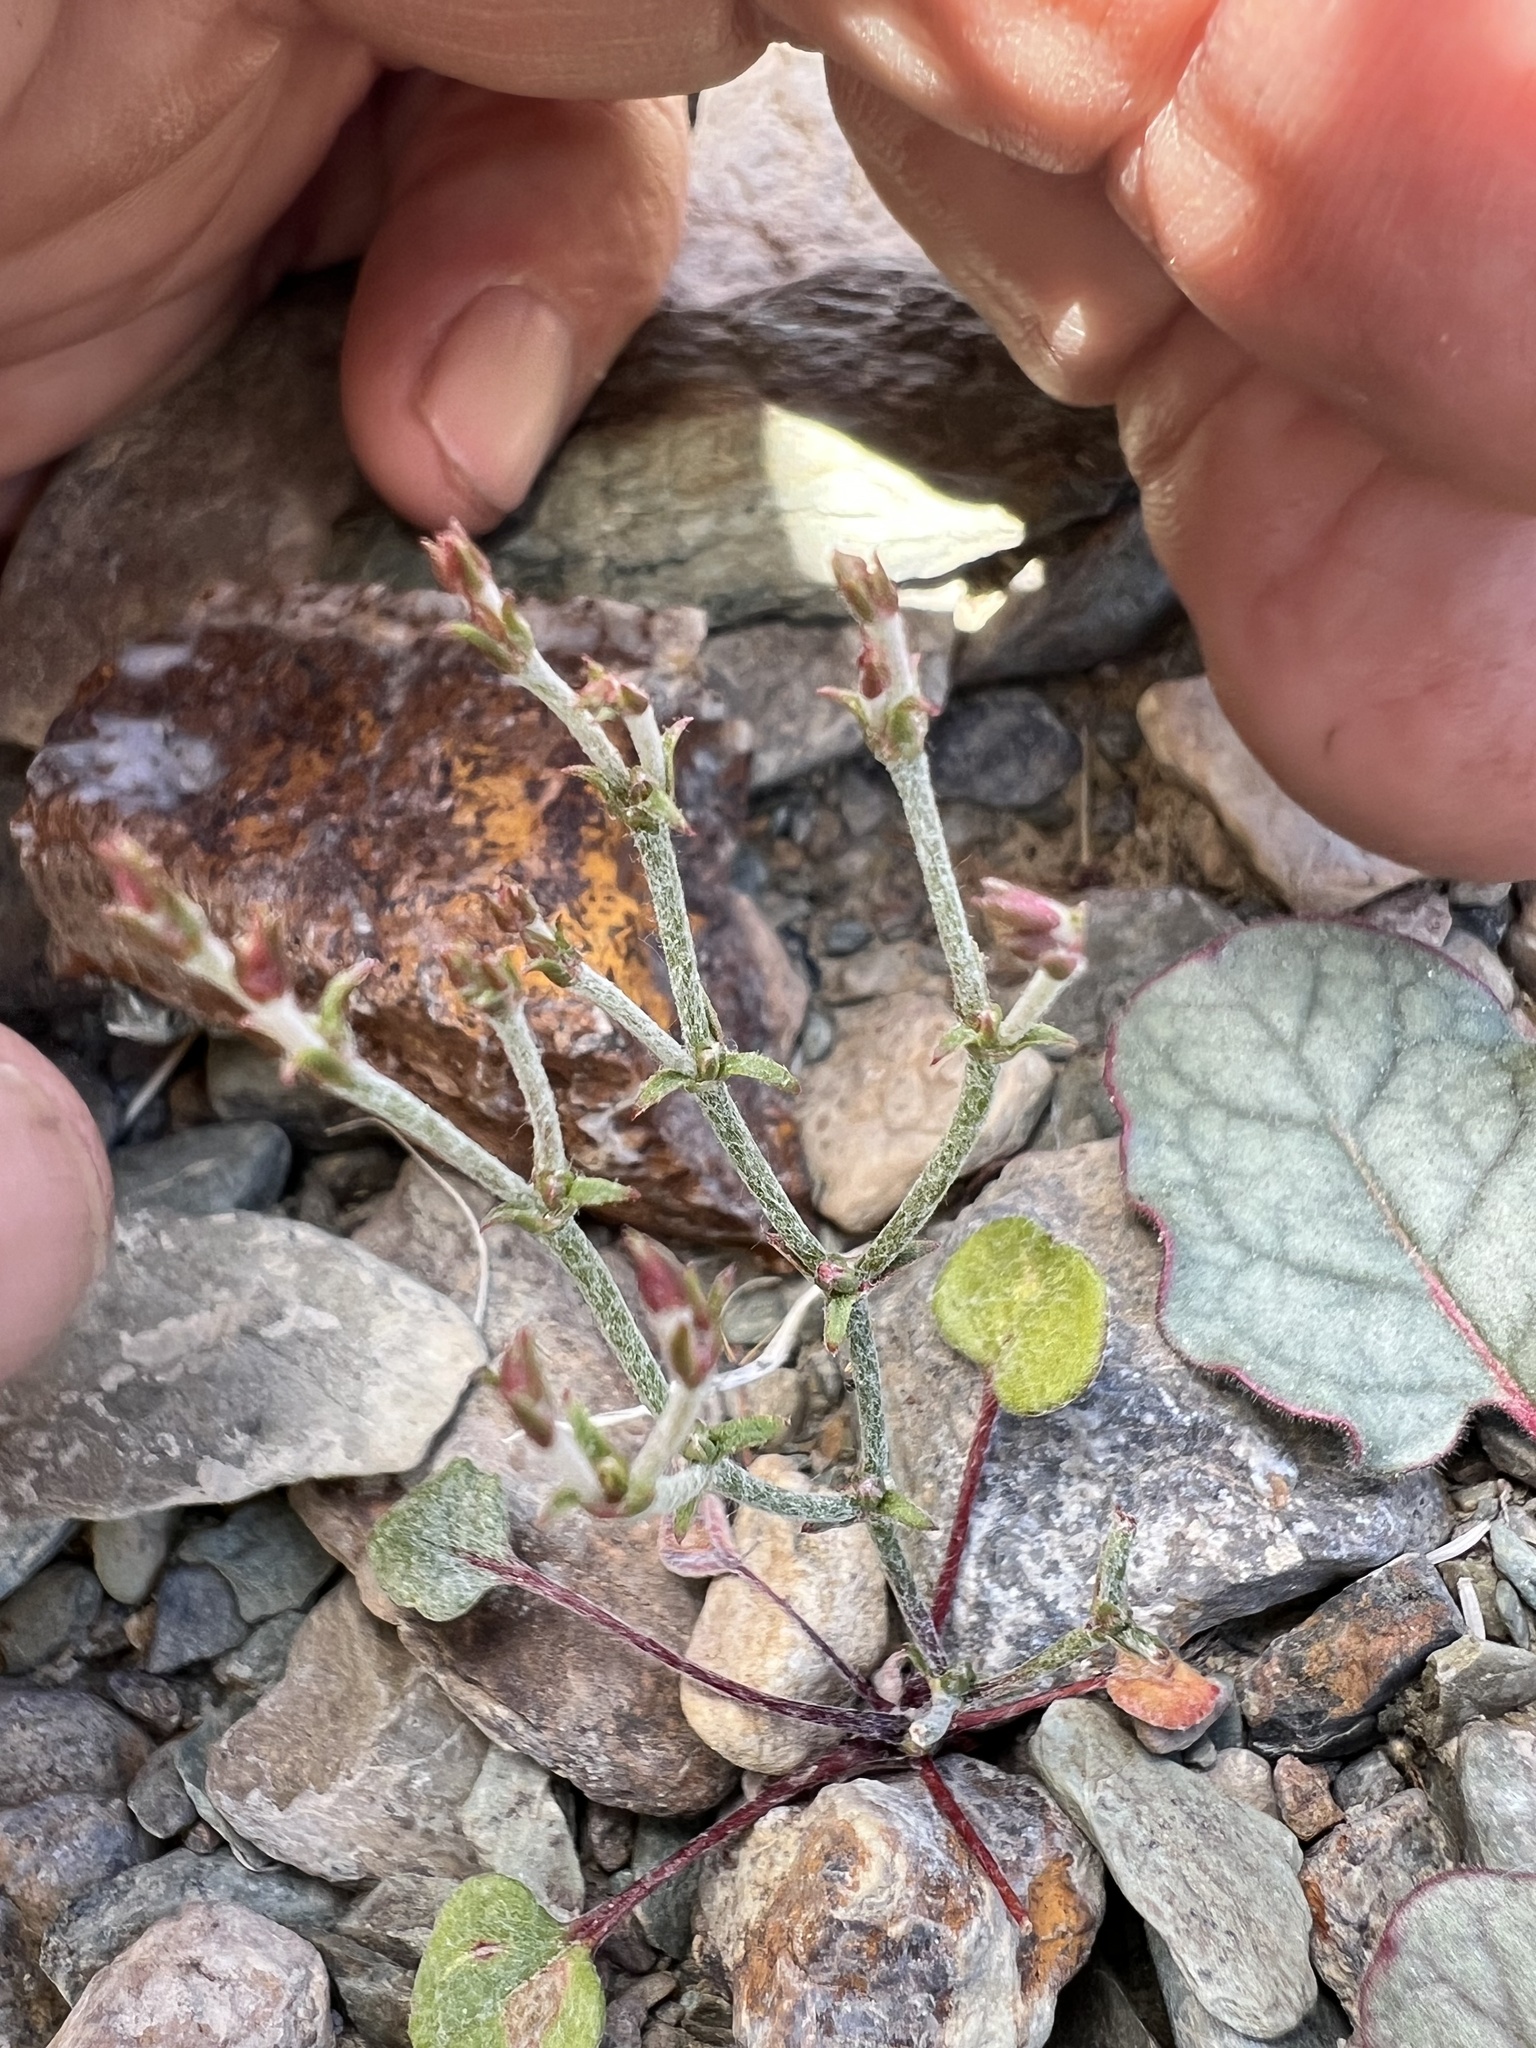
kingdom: Plantae
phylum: Tracheophyta
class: Magnoliopsida
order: Caryophyllales
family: Polygonaceae
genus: Eriogonum
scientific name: Eriogonum nidularium
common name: Bird's-nest wild buckwheat
